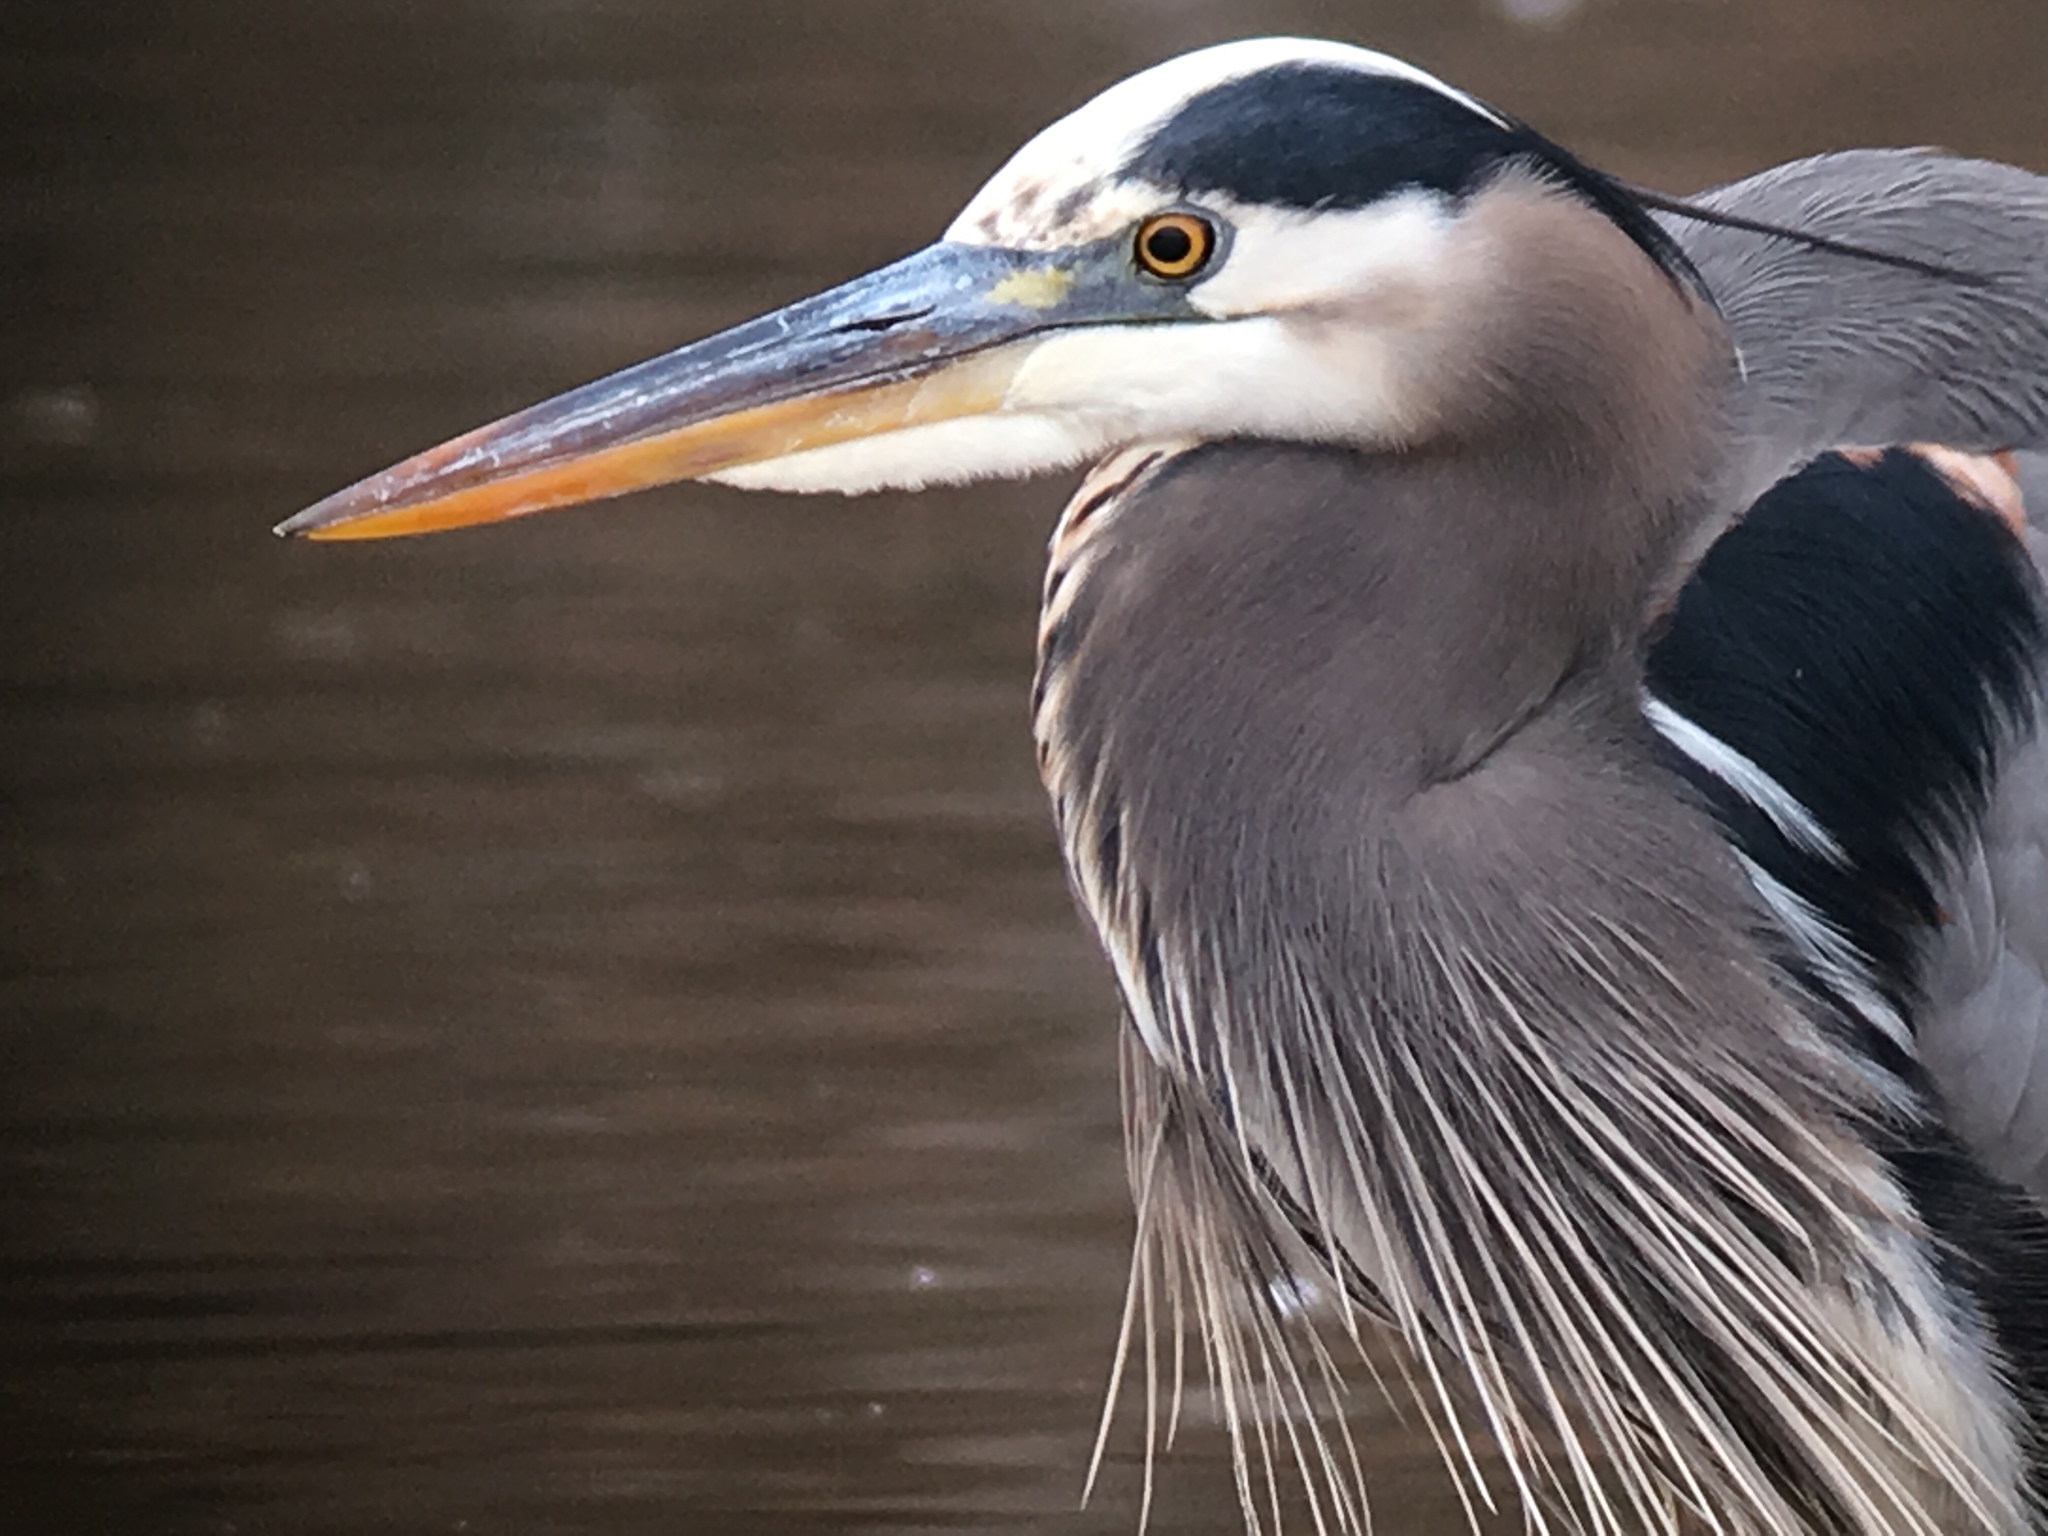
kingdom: Animalia
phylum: Chordata
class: Aves
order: Pelecaniformes
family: Ardeidae
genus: Ardea
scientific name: Ardea herodias
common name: Great blue heron
